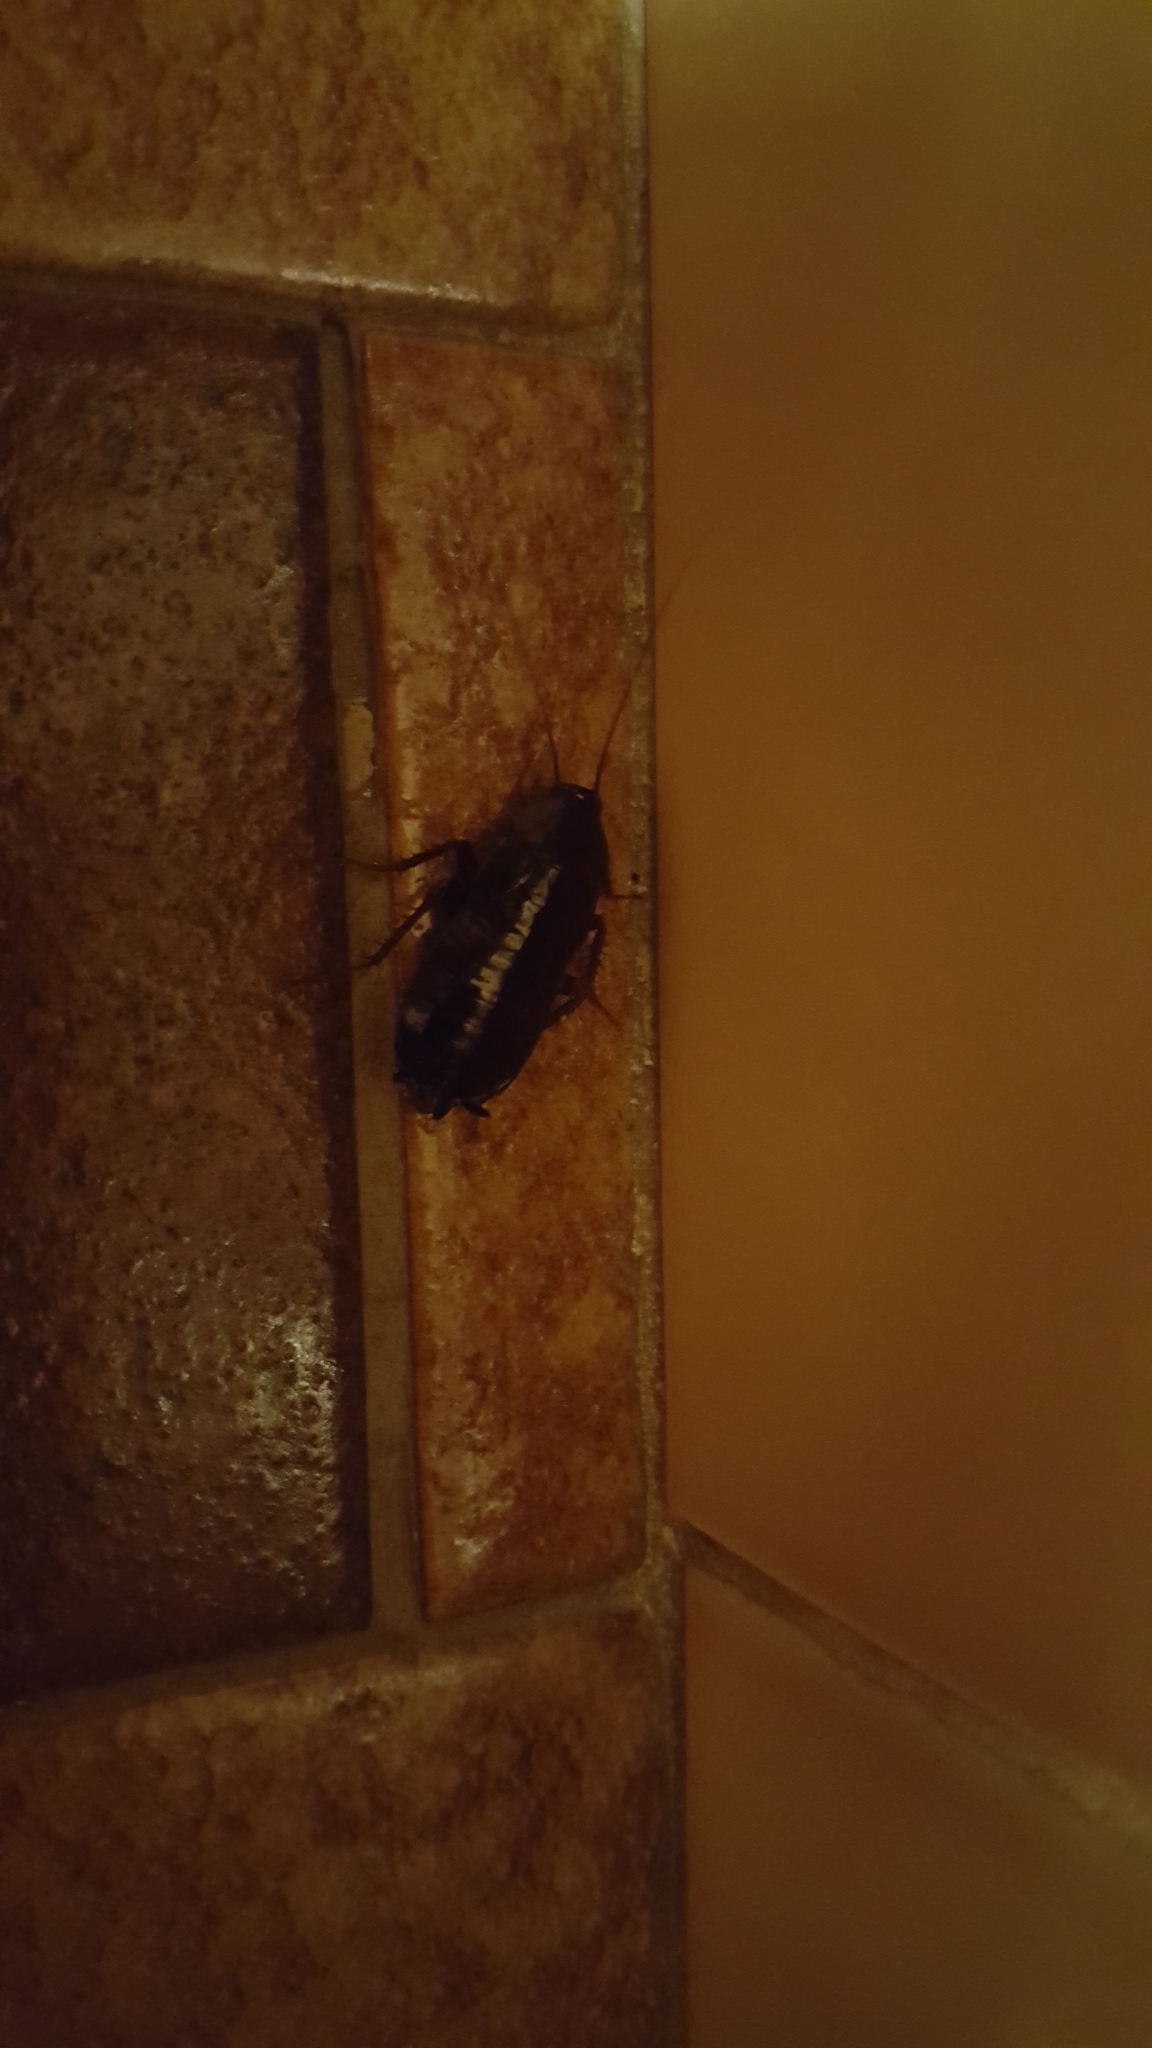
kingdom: Animalia
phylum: Arthropoda
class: Insecta
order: Blattodea
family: Blattidae
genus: Blatta
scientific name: Blatta orientalis
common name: Oriental cockroach
